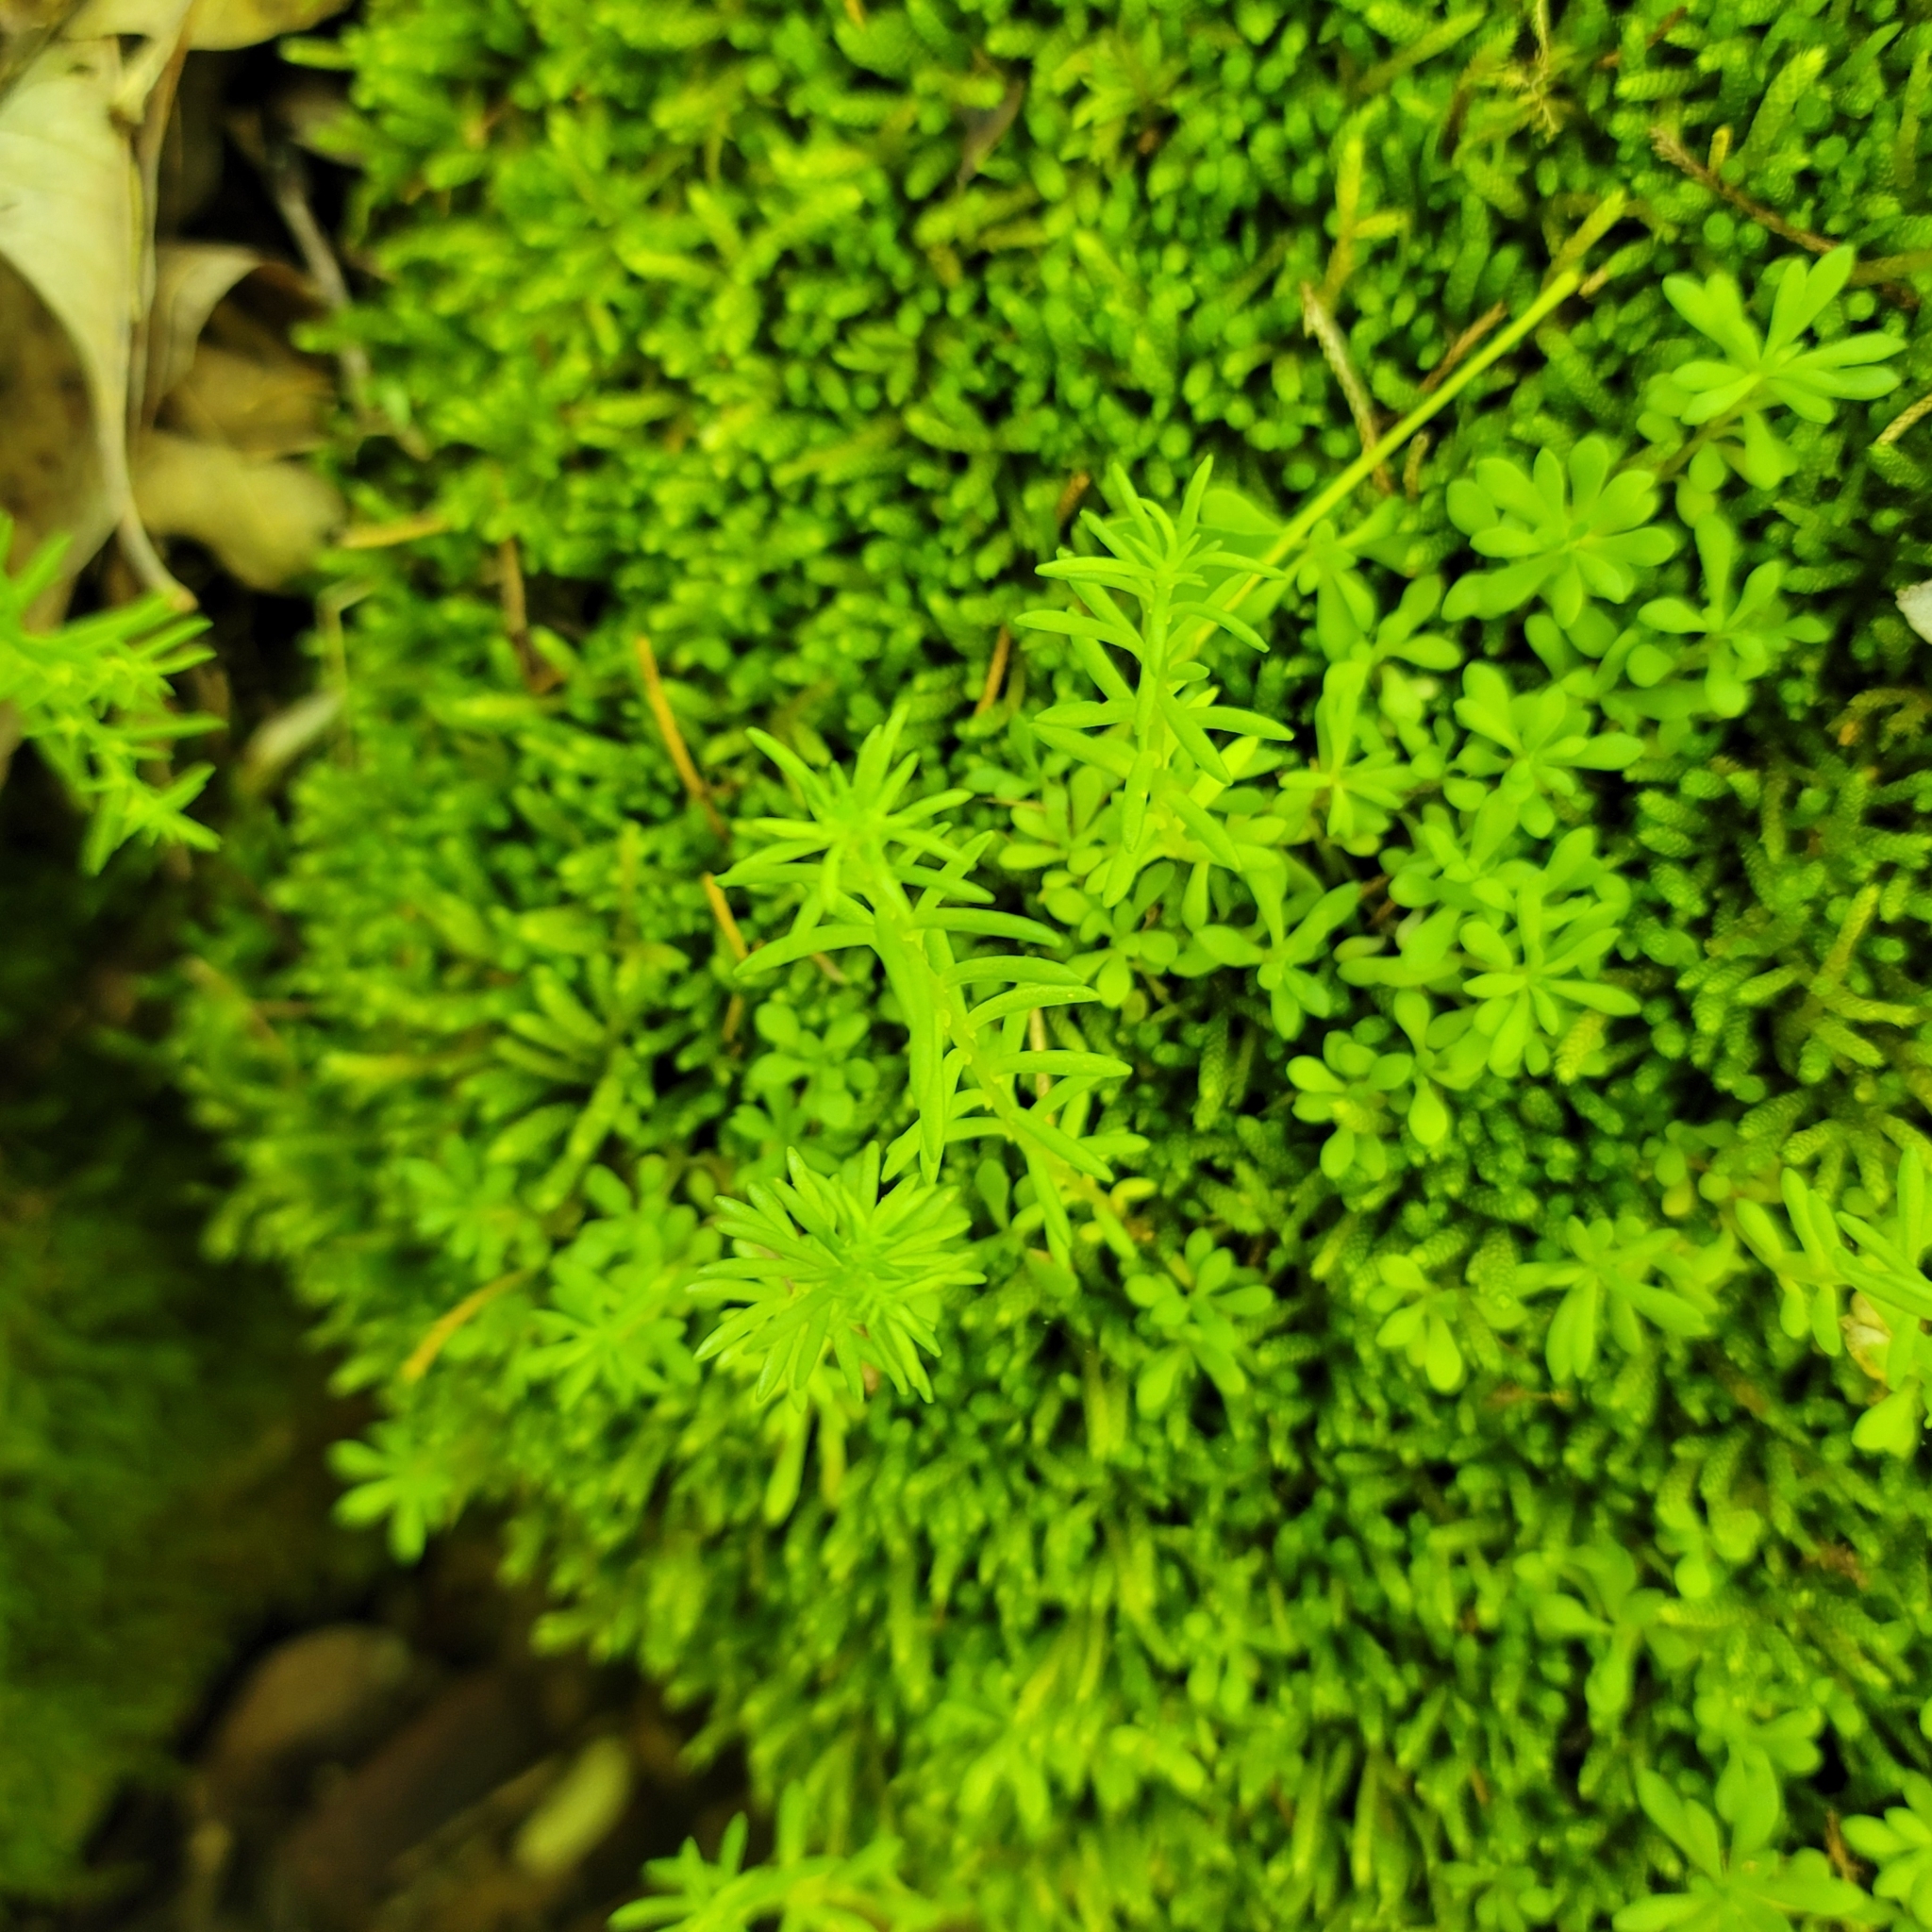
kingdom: Plantae
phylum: Tracheophyta
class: Magnoliopsida
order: Saxifragales
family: Crassulaceae
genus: Sedum
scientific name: Sedum nevii
